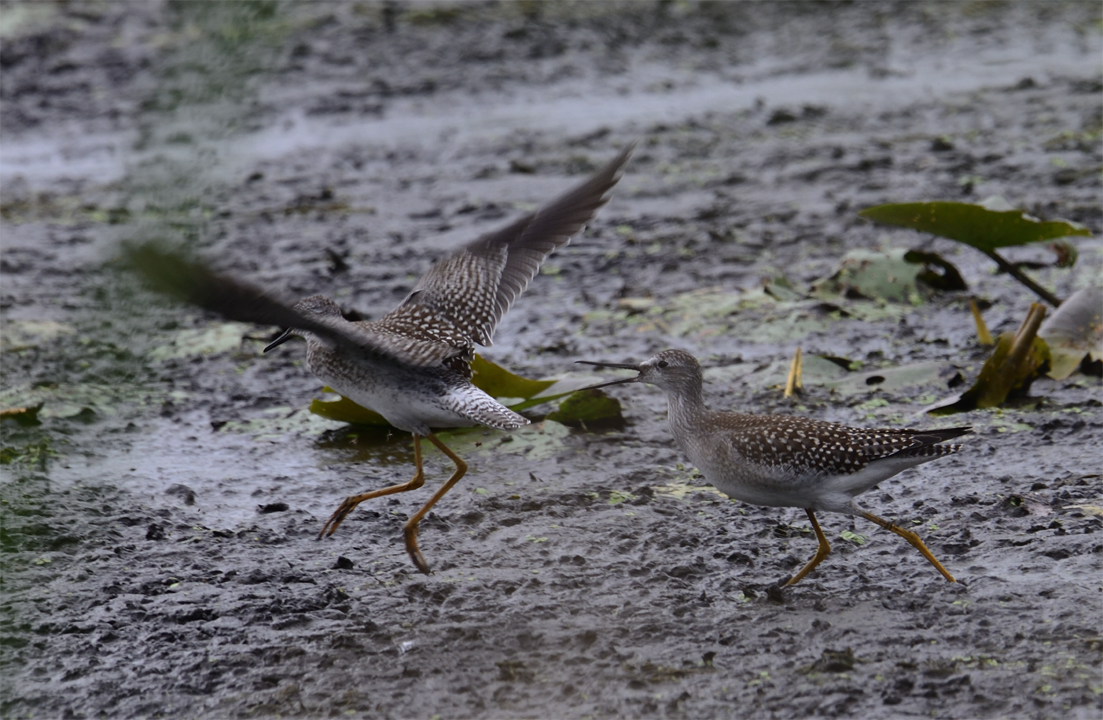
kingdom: Animalia
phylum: Chordata
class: Aves
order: Charadriiformes
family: Scolopacidae
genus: Tringa
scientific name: Tringa flavipes
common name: Lesser yellowlegs
